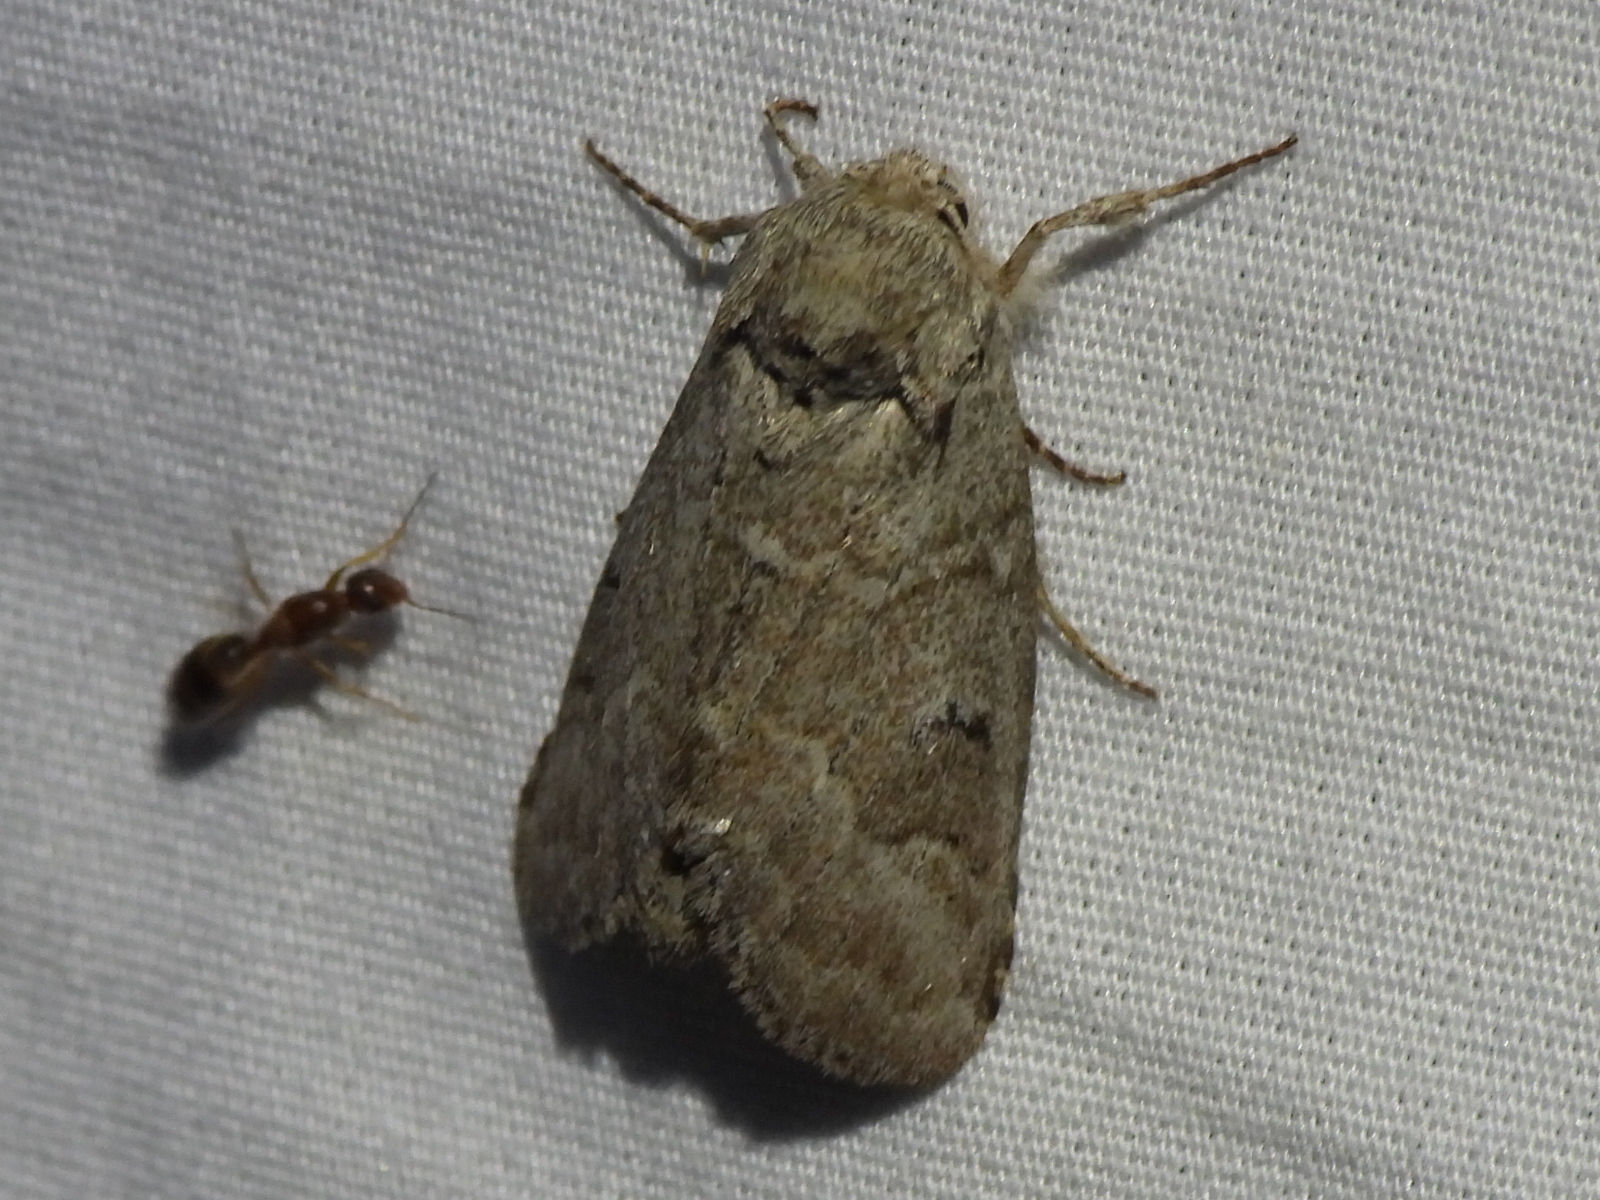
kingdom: Animalia
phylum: Arthropoda
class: Insecta
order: Lepidoptera
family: Notodontidae
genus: Lochmaeus
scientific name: Lochmaeus bilineata
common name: Double-lined prominent
